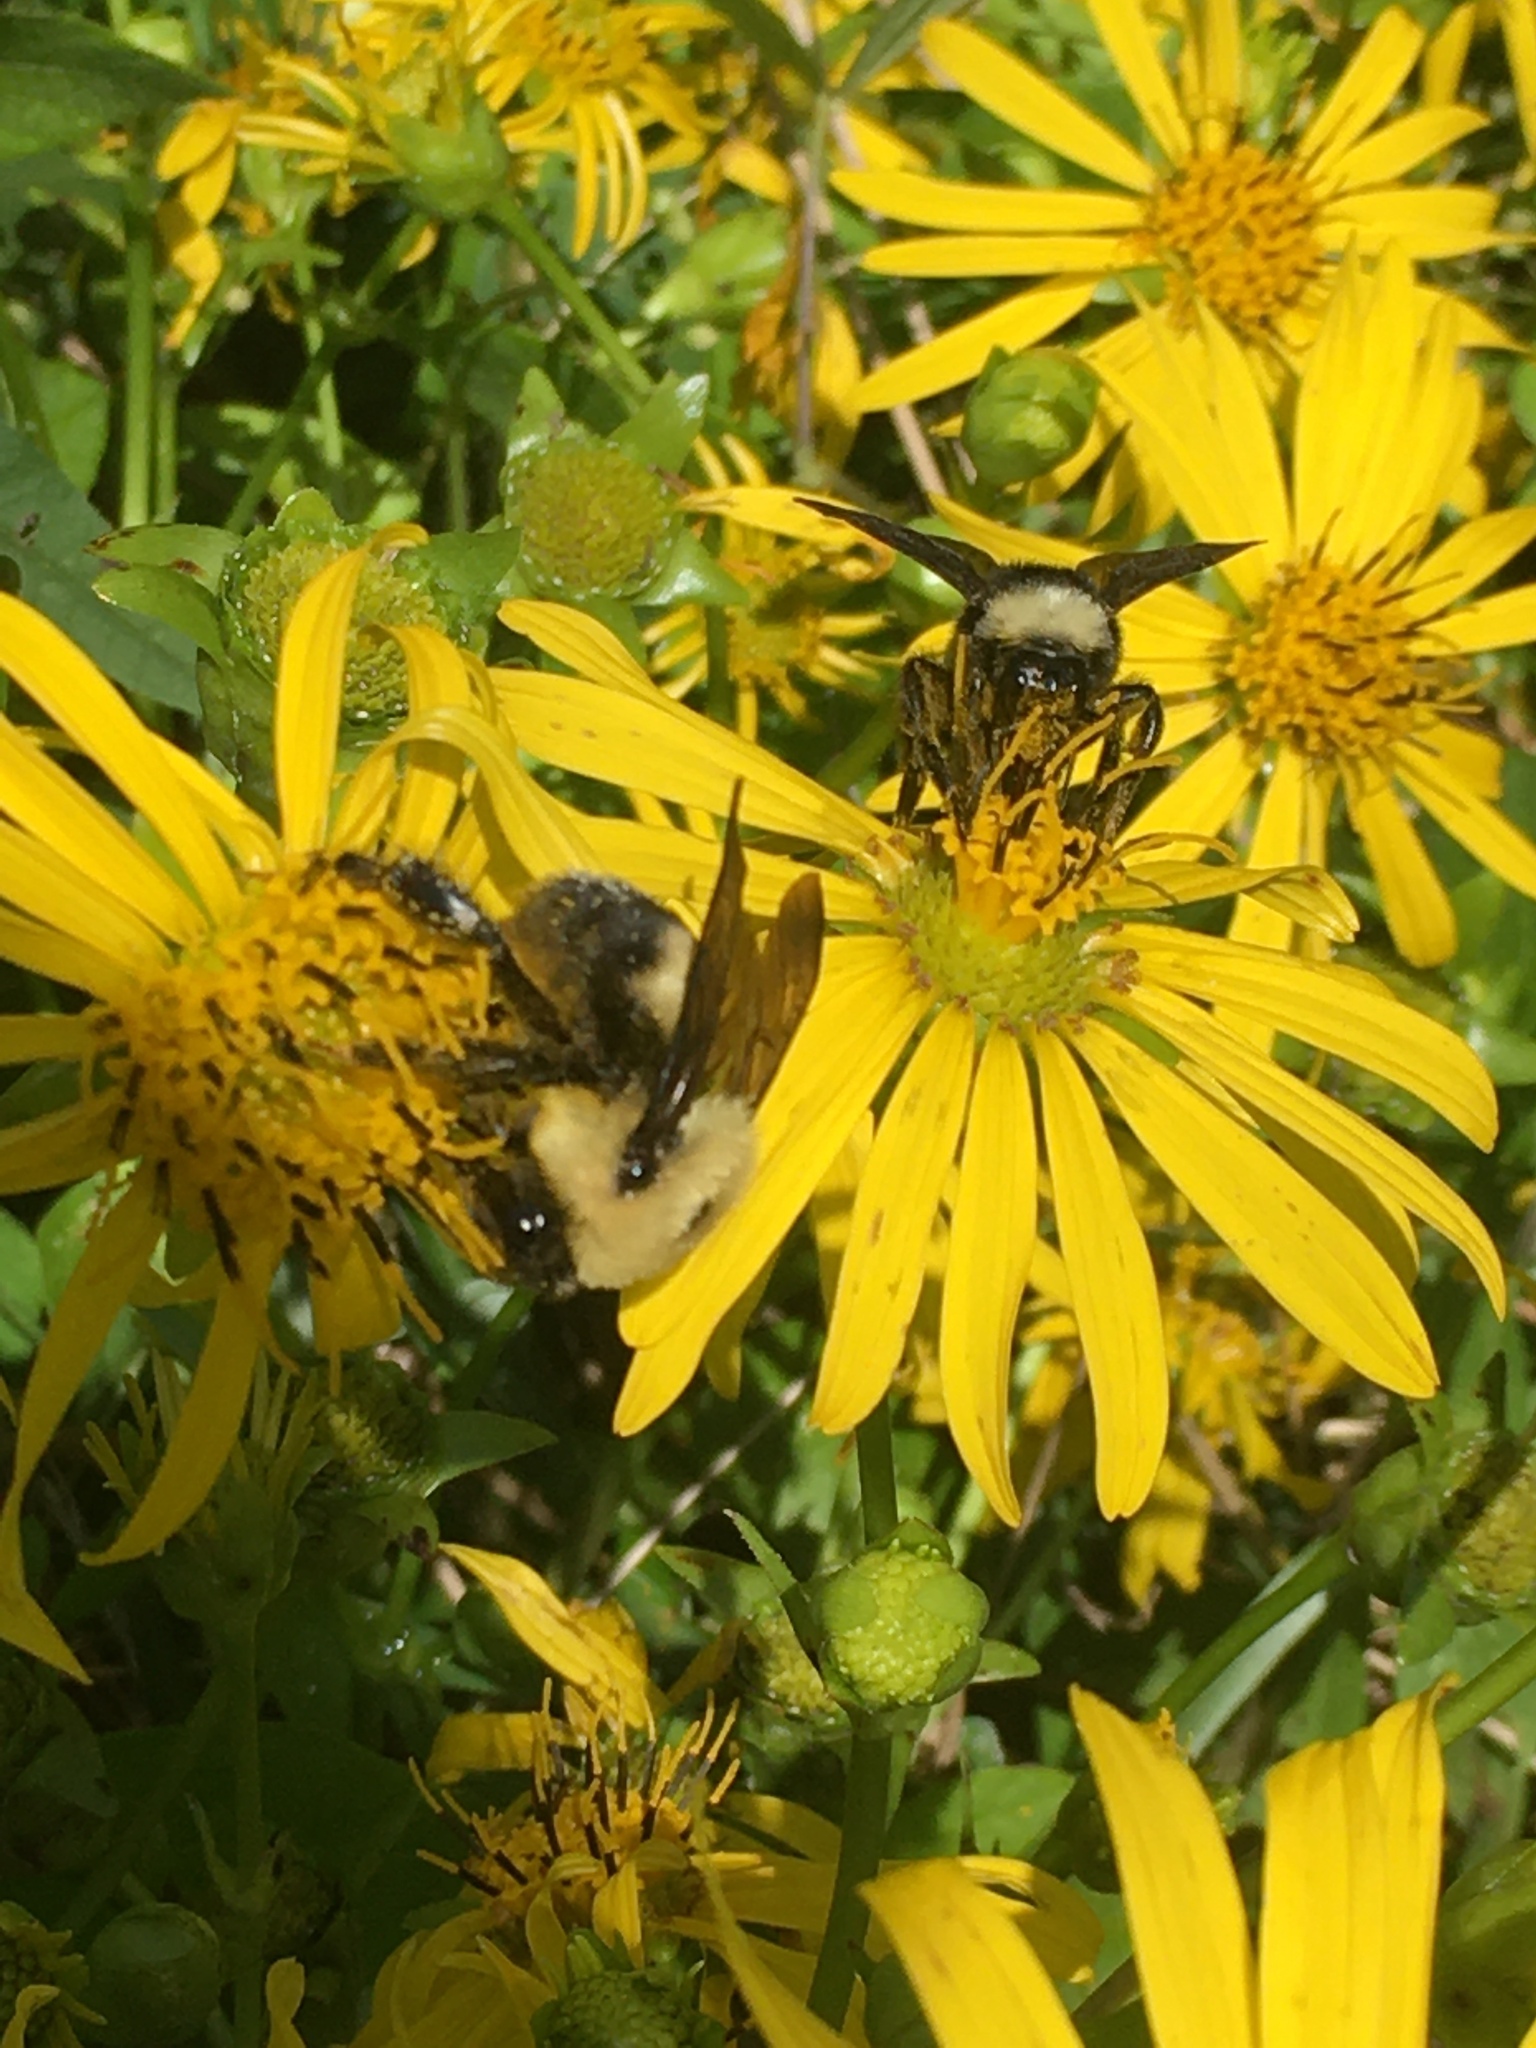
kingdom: Animalia
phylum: Arthropoda
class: Insecta
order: Hymenoptera
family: Apidae
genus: Bombus
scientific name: Bombus griseocollis
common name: Brown-belted bumble bee
